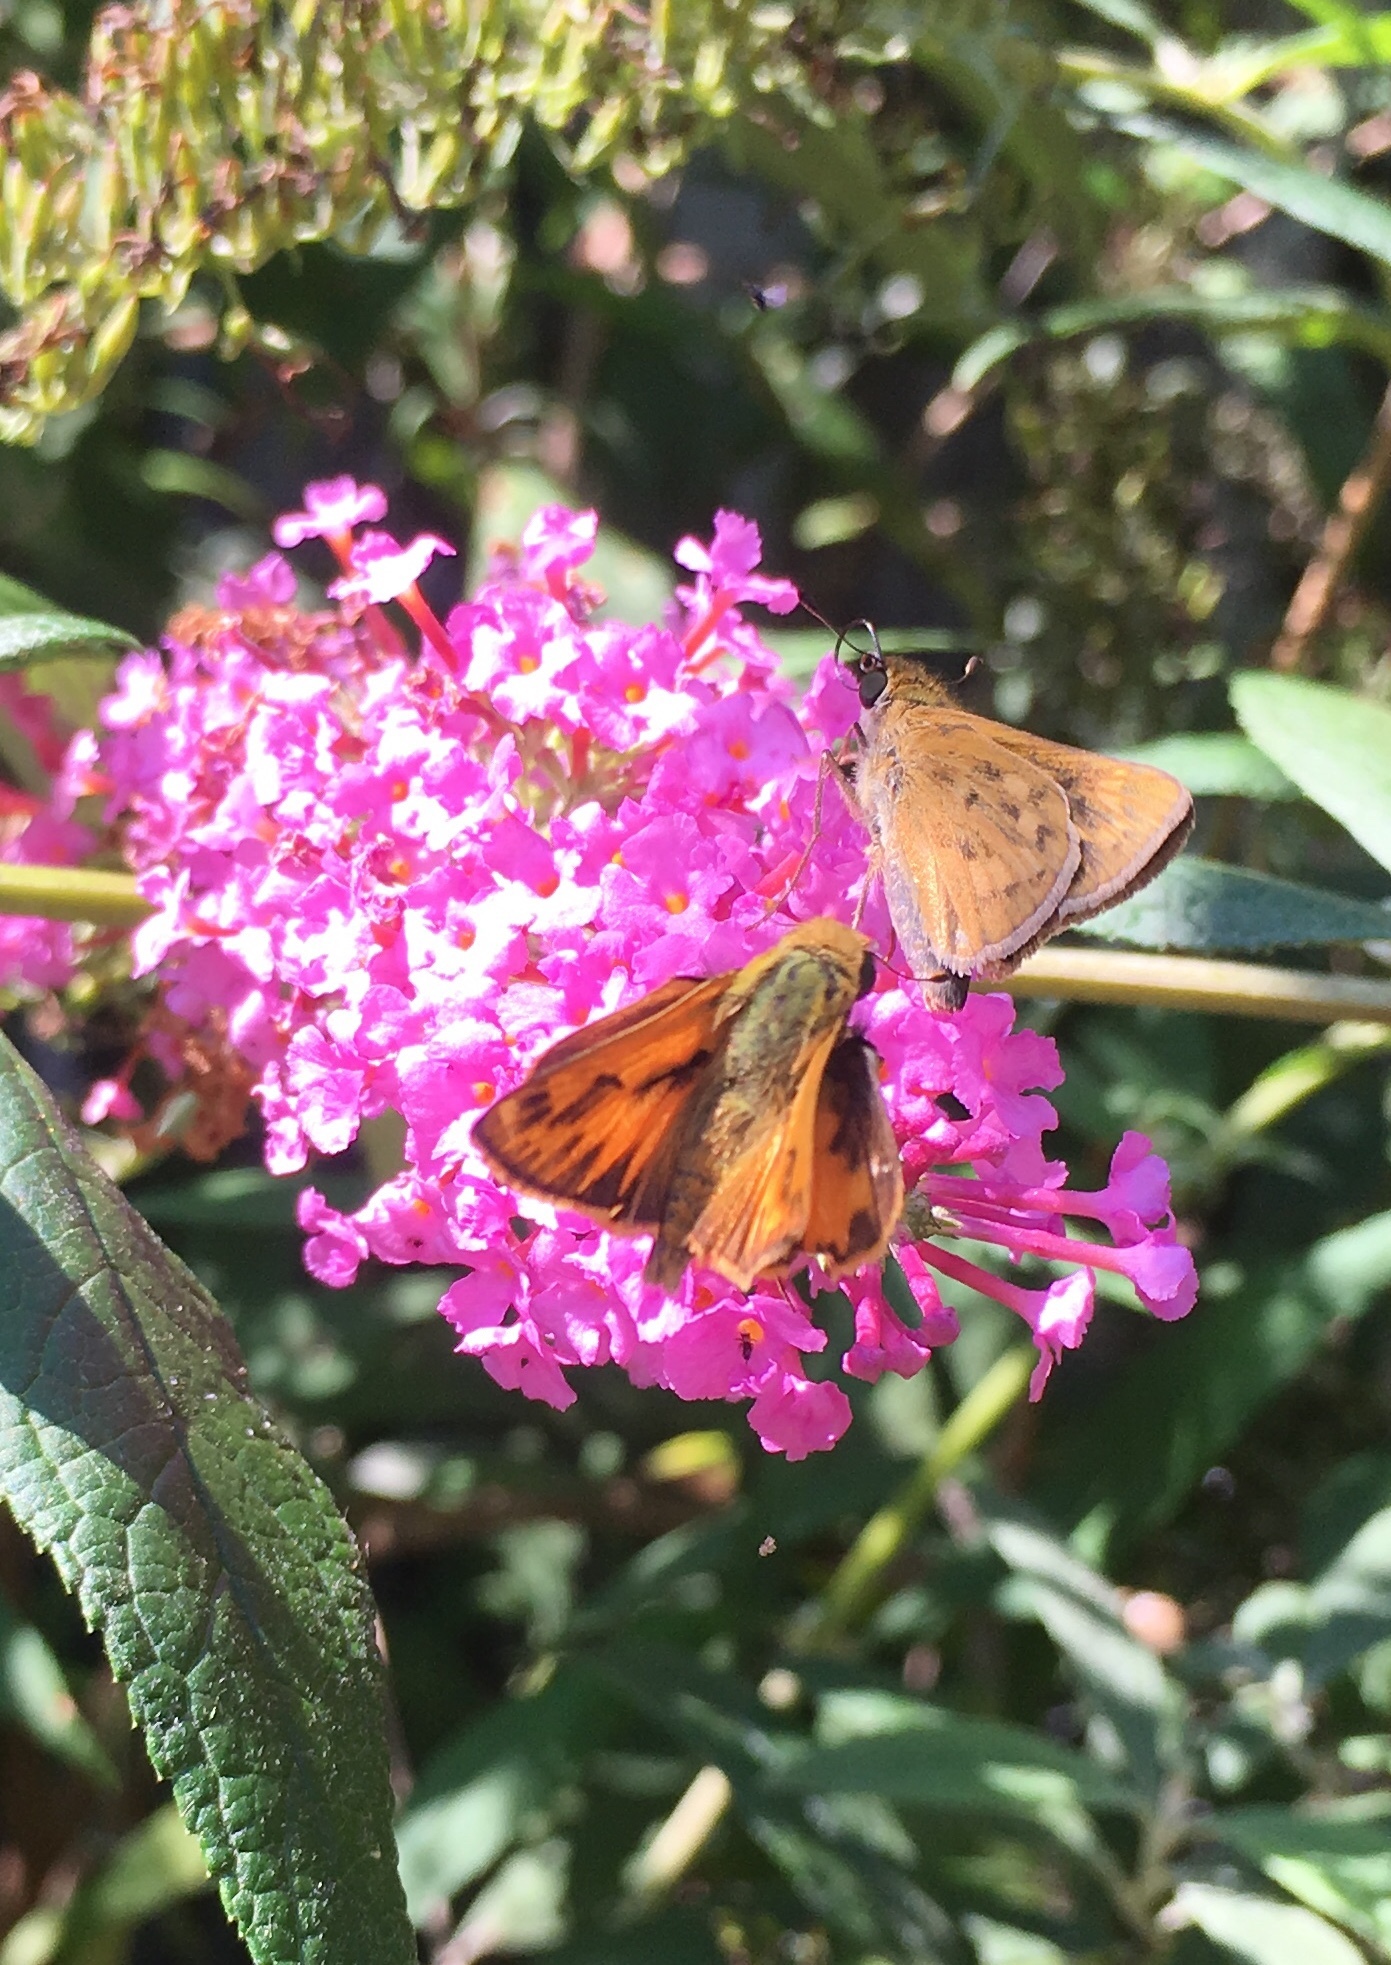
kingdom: Animalia
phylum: Arthropoda
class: Insecta
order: Lepidoptera
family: Hesperiidae
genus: Hylephila
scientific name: Hylephila phyleus
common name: Fiery skipper
